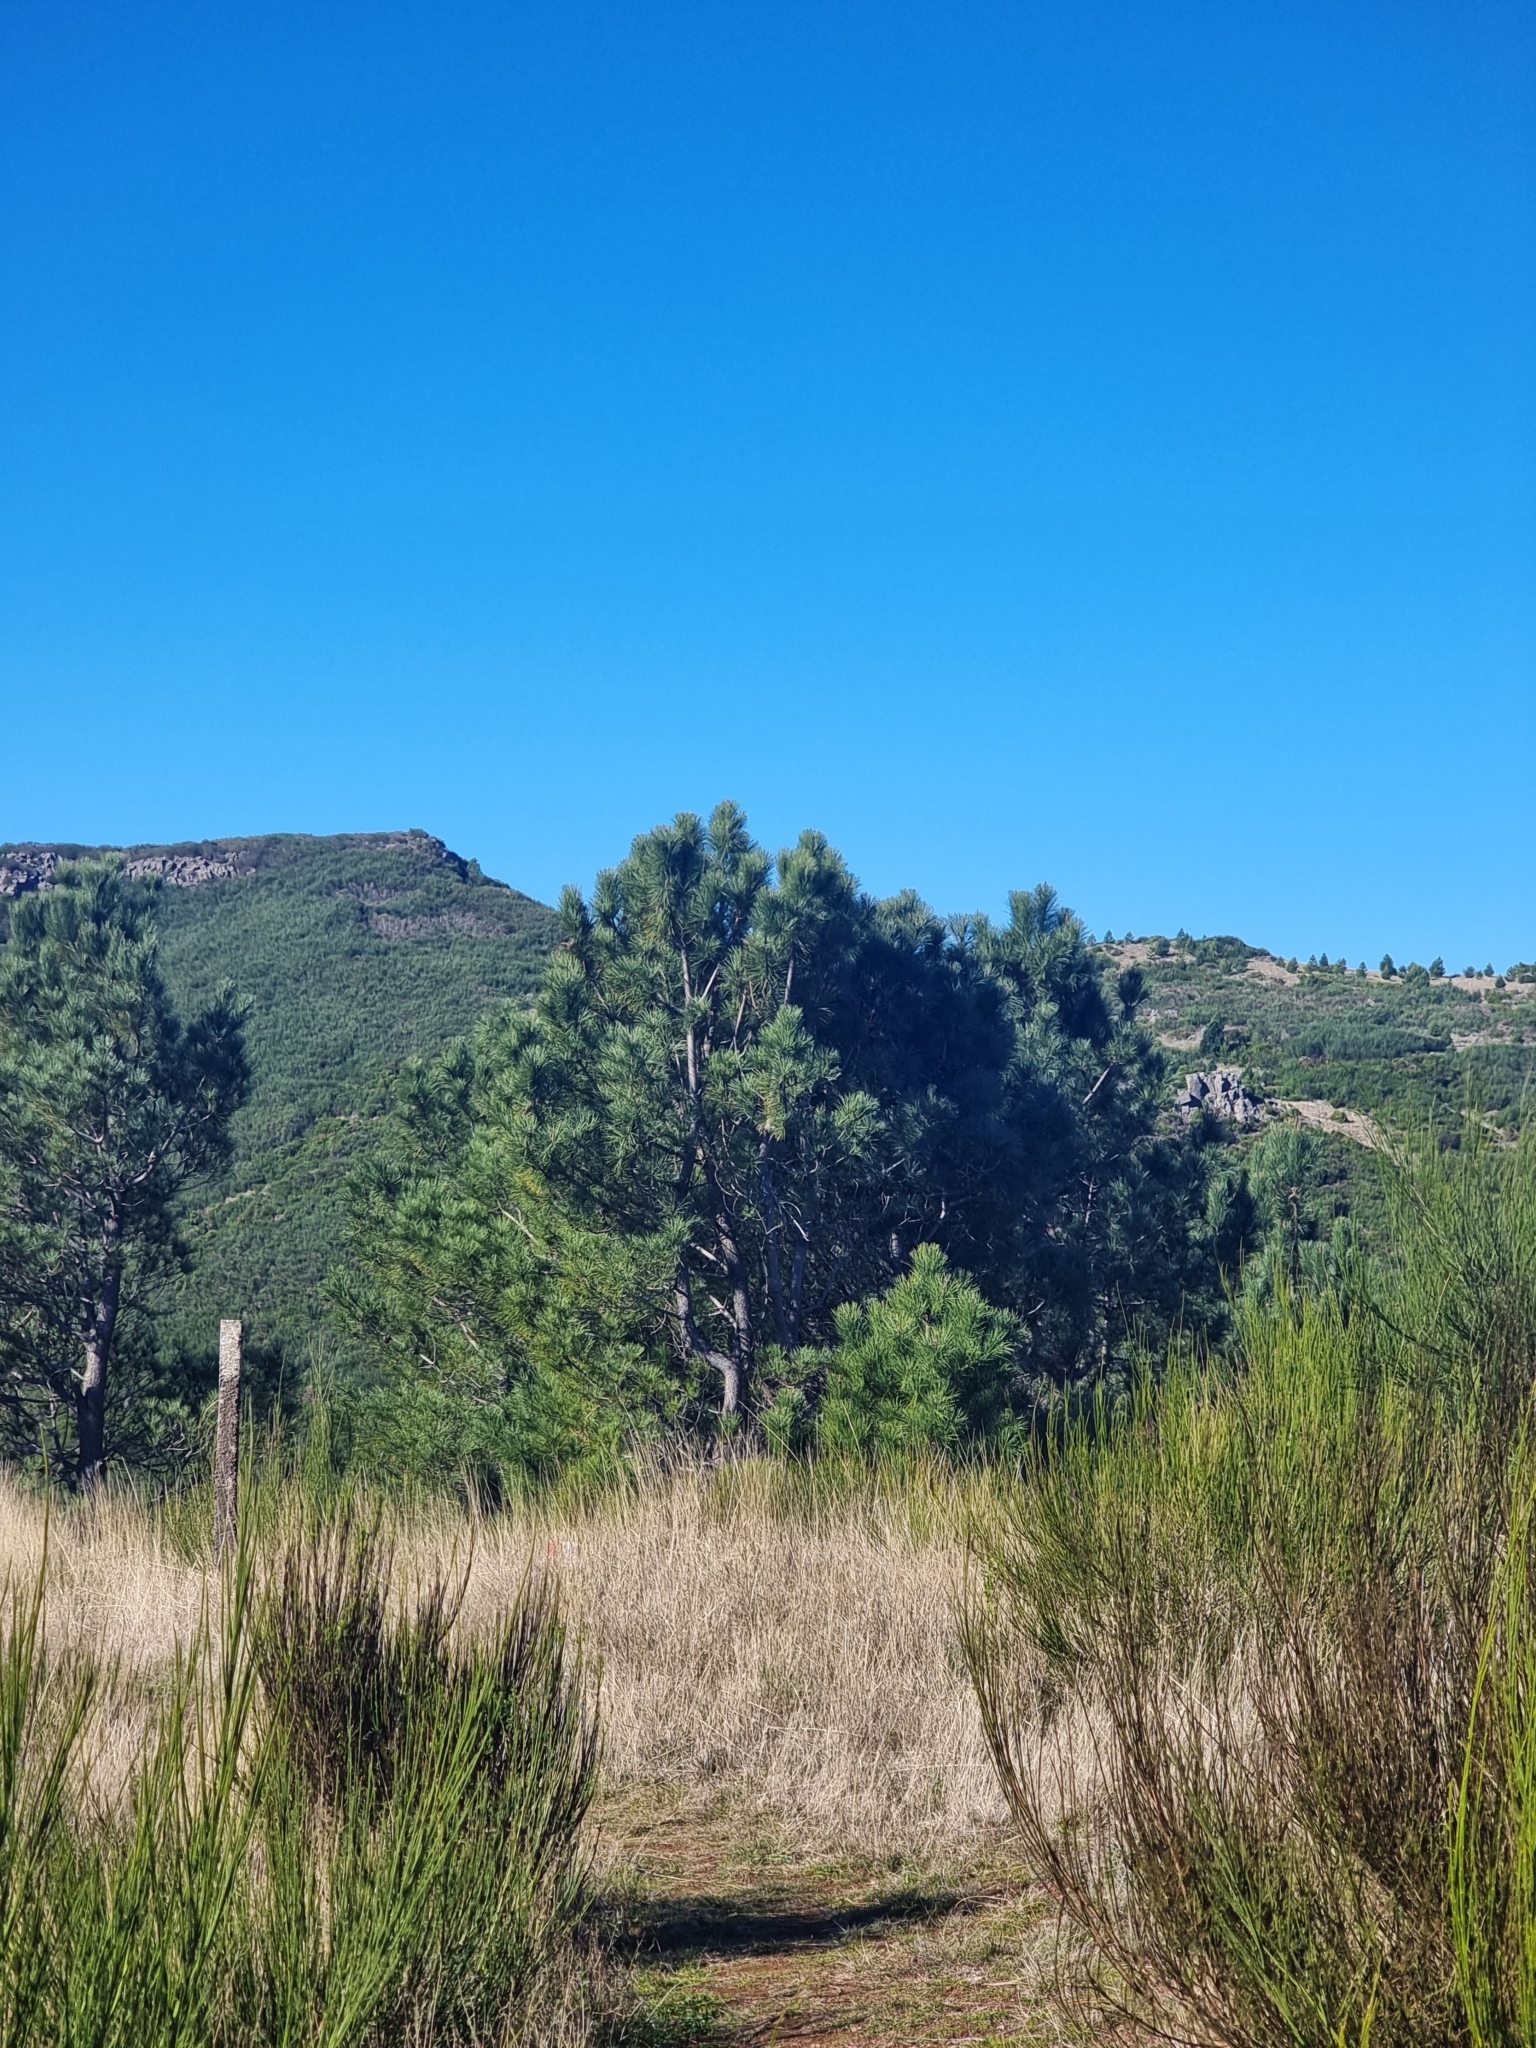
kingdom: Plantae
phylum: Tracheophyta
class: Pinopsida
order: Pinales
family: Pinaceae
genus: Pinus
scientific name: Pinus pinaster
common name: Maritime pine
